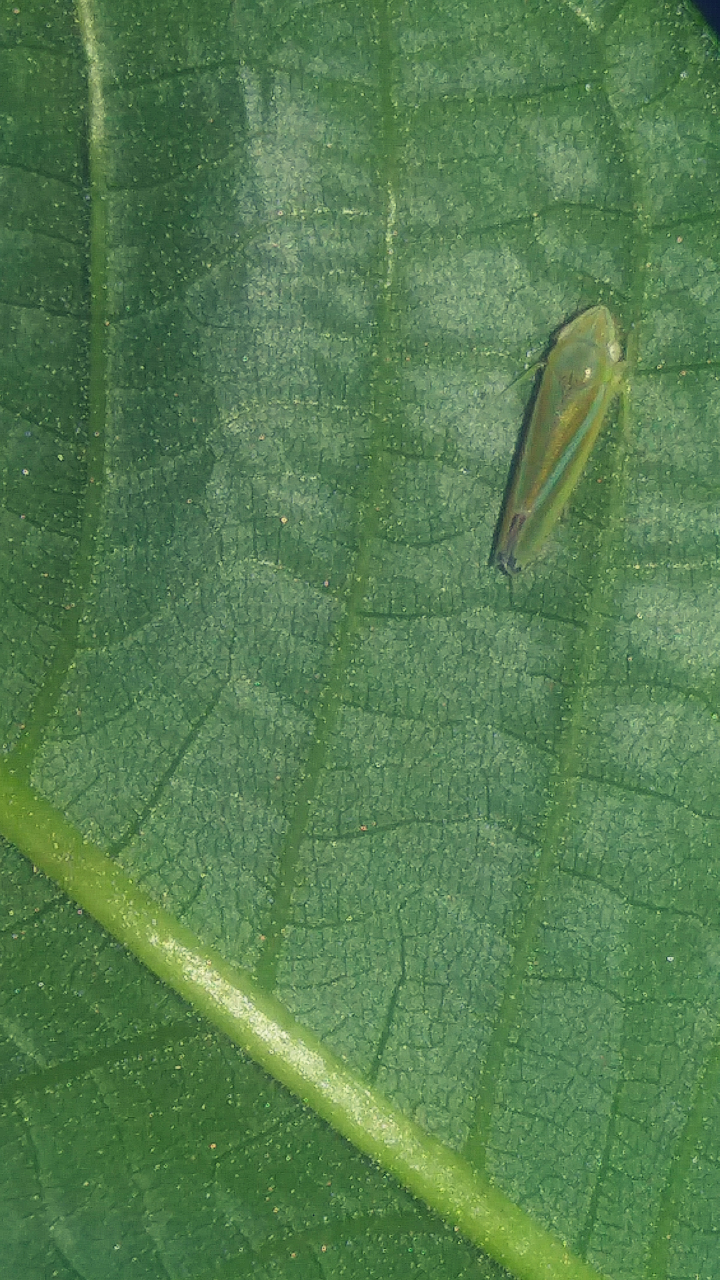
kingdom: Animalia
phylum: Arthropoda
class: Insecta
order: Hemiptera
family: Cicadellidae
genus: Graphocephala
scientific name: Graphocephala versuta
